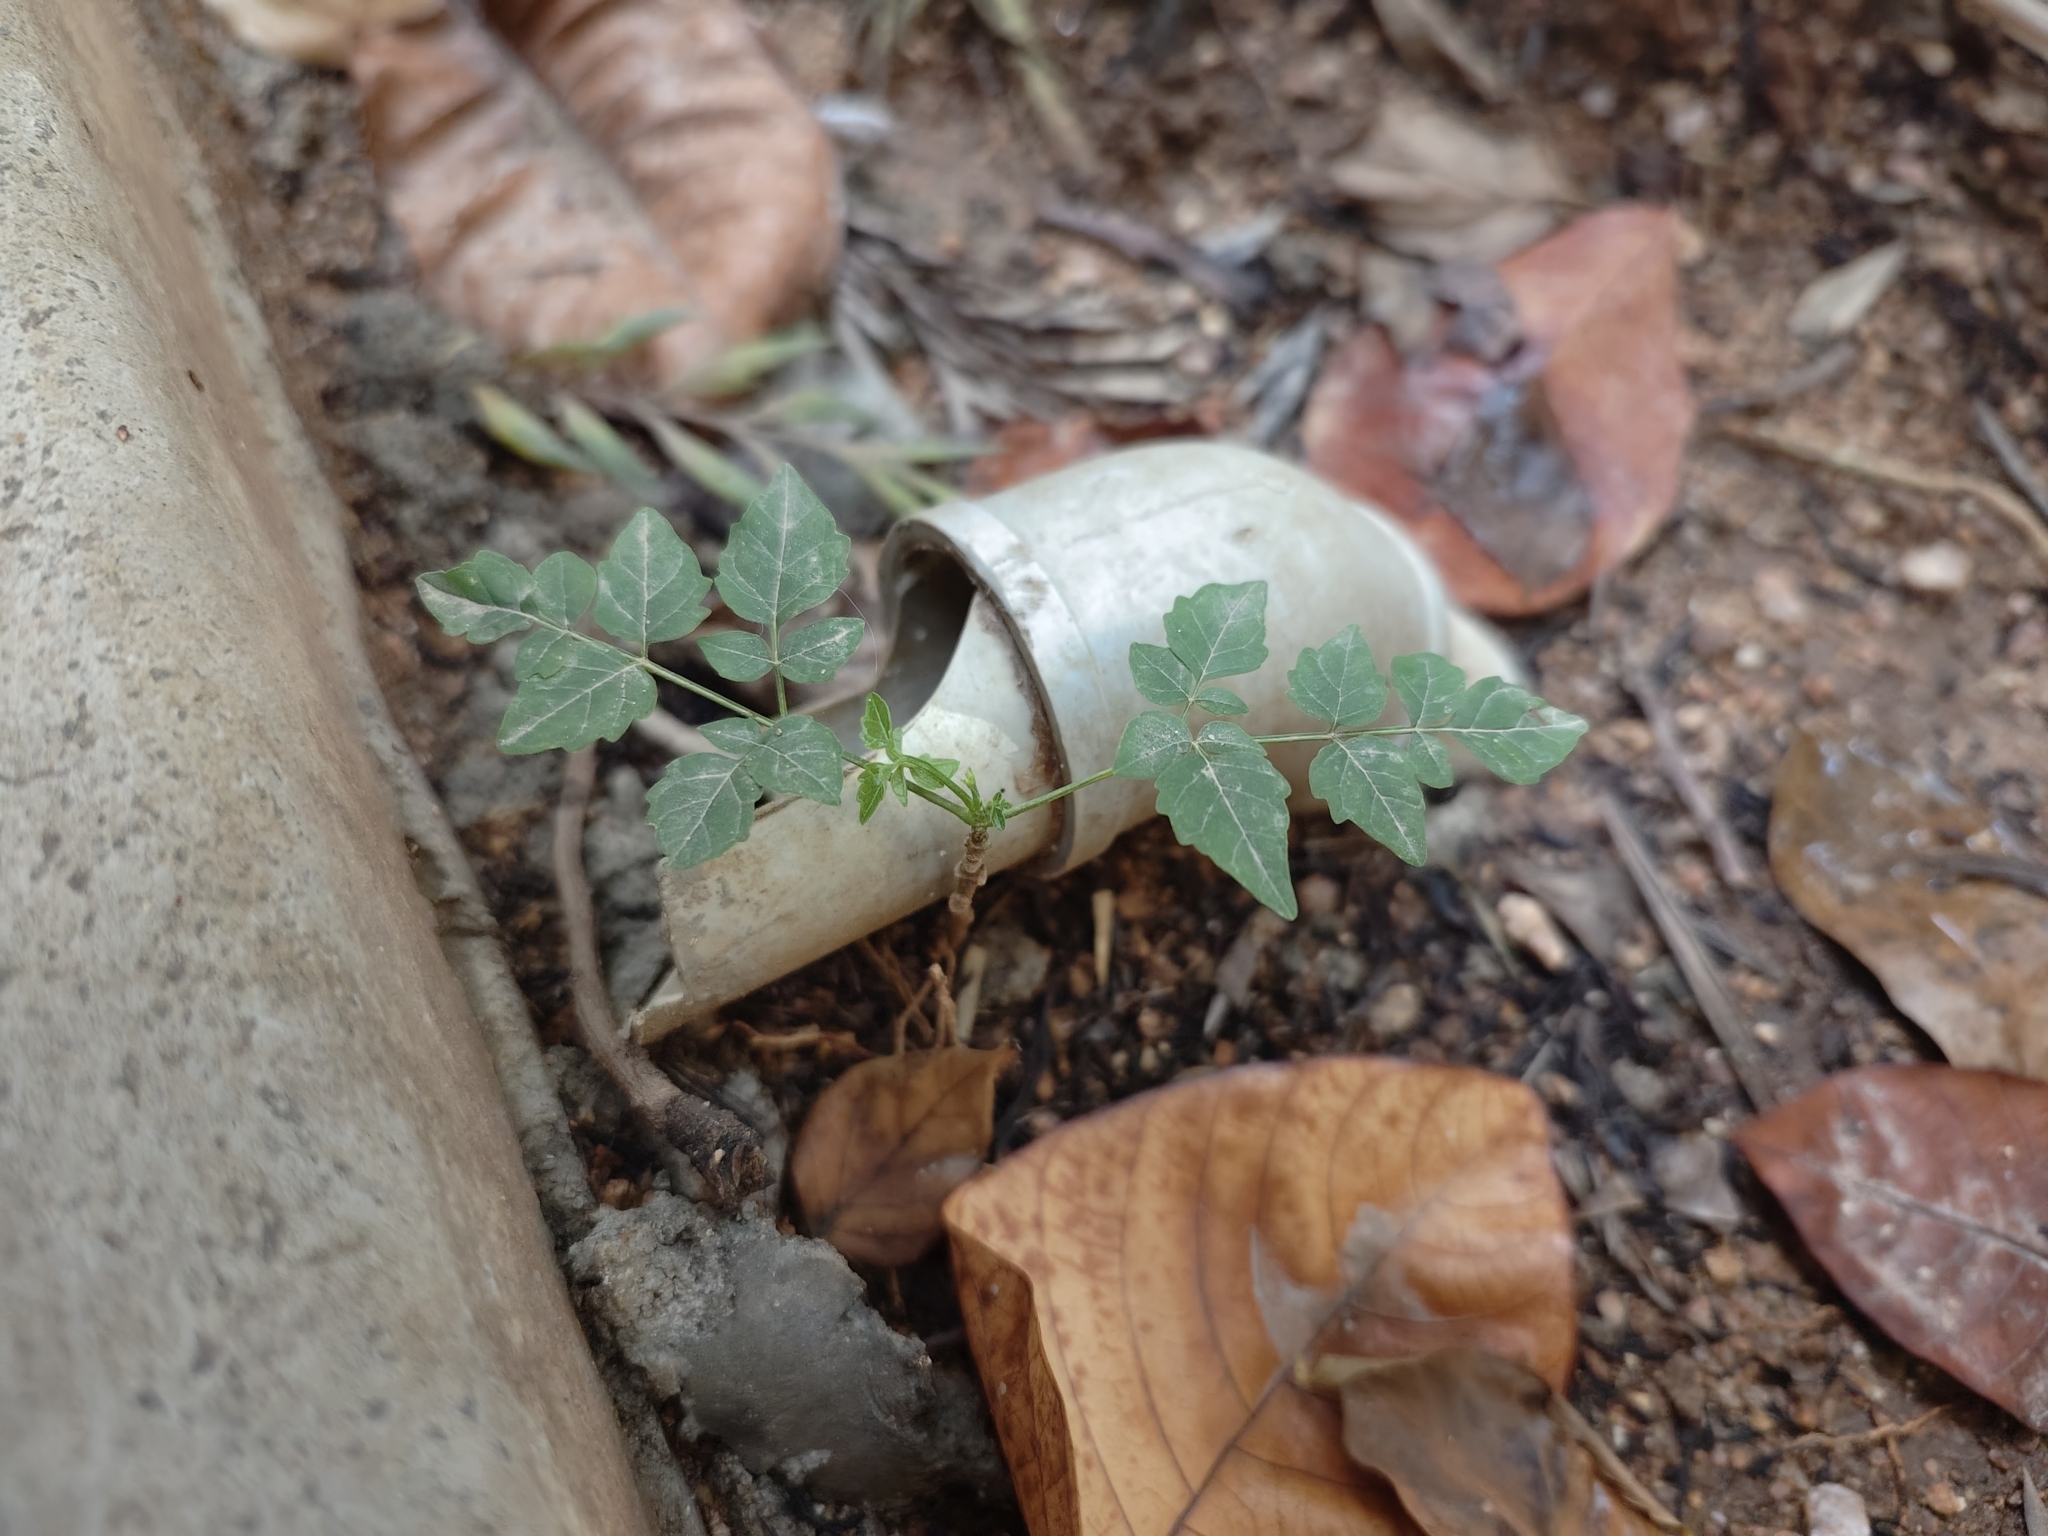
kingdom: Plantae
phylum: Tracheophyta
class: Magnoliopsida
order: Lamiales
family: Bignoniaceae
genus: Millingtonia
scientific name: Millingtonia hortensis
